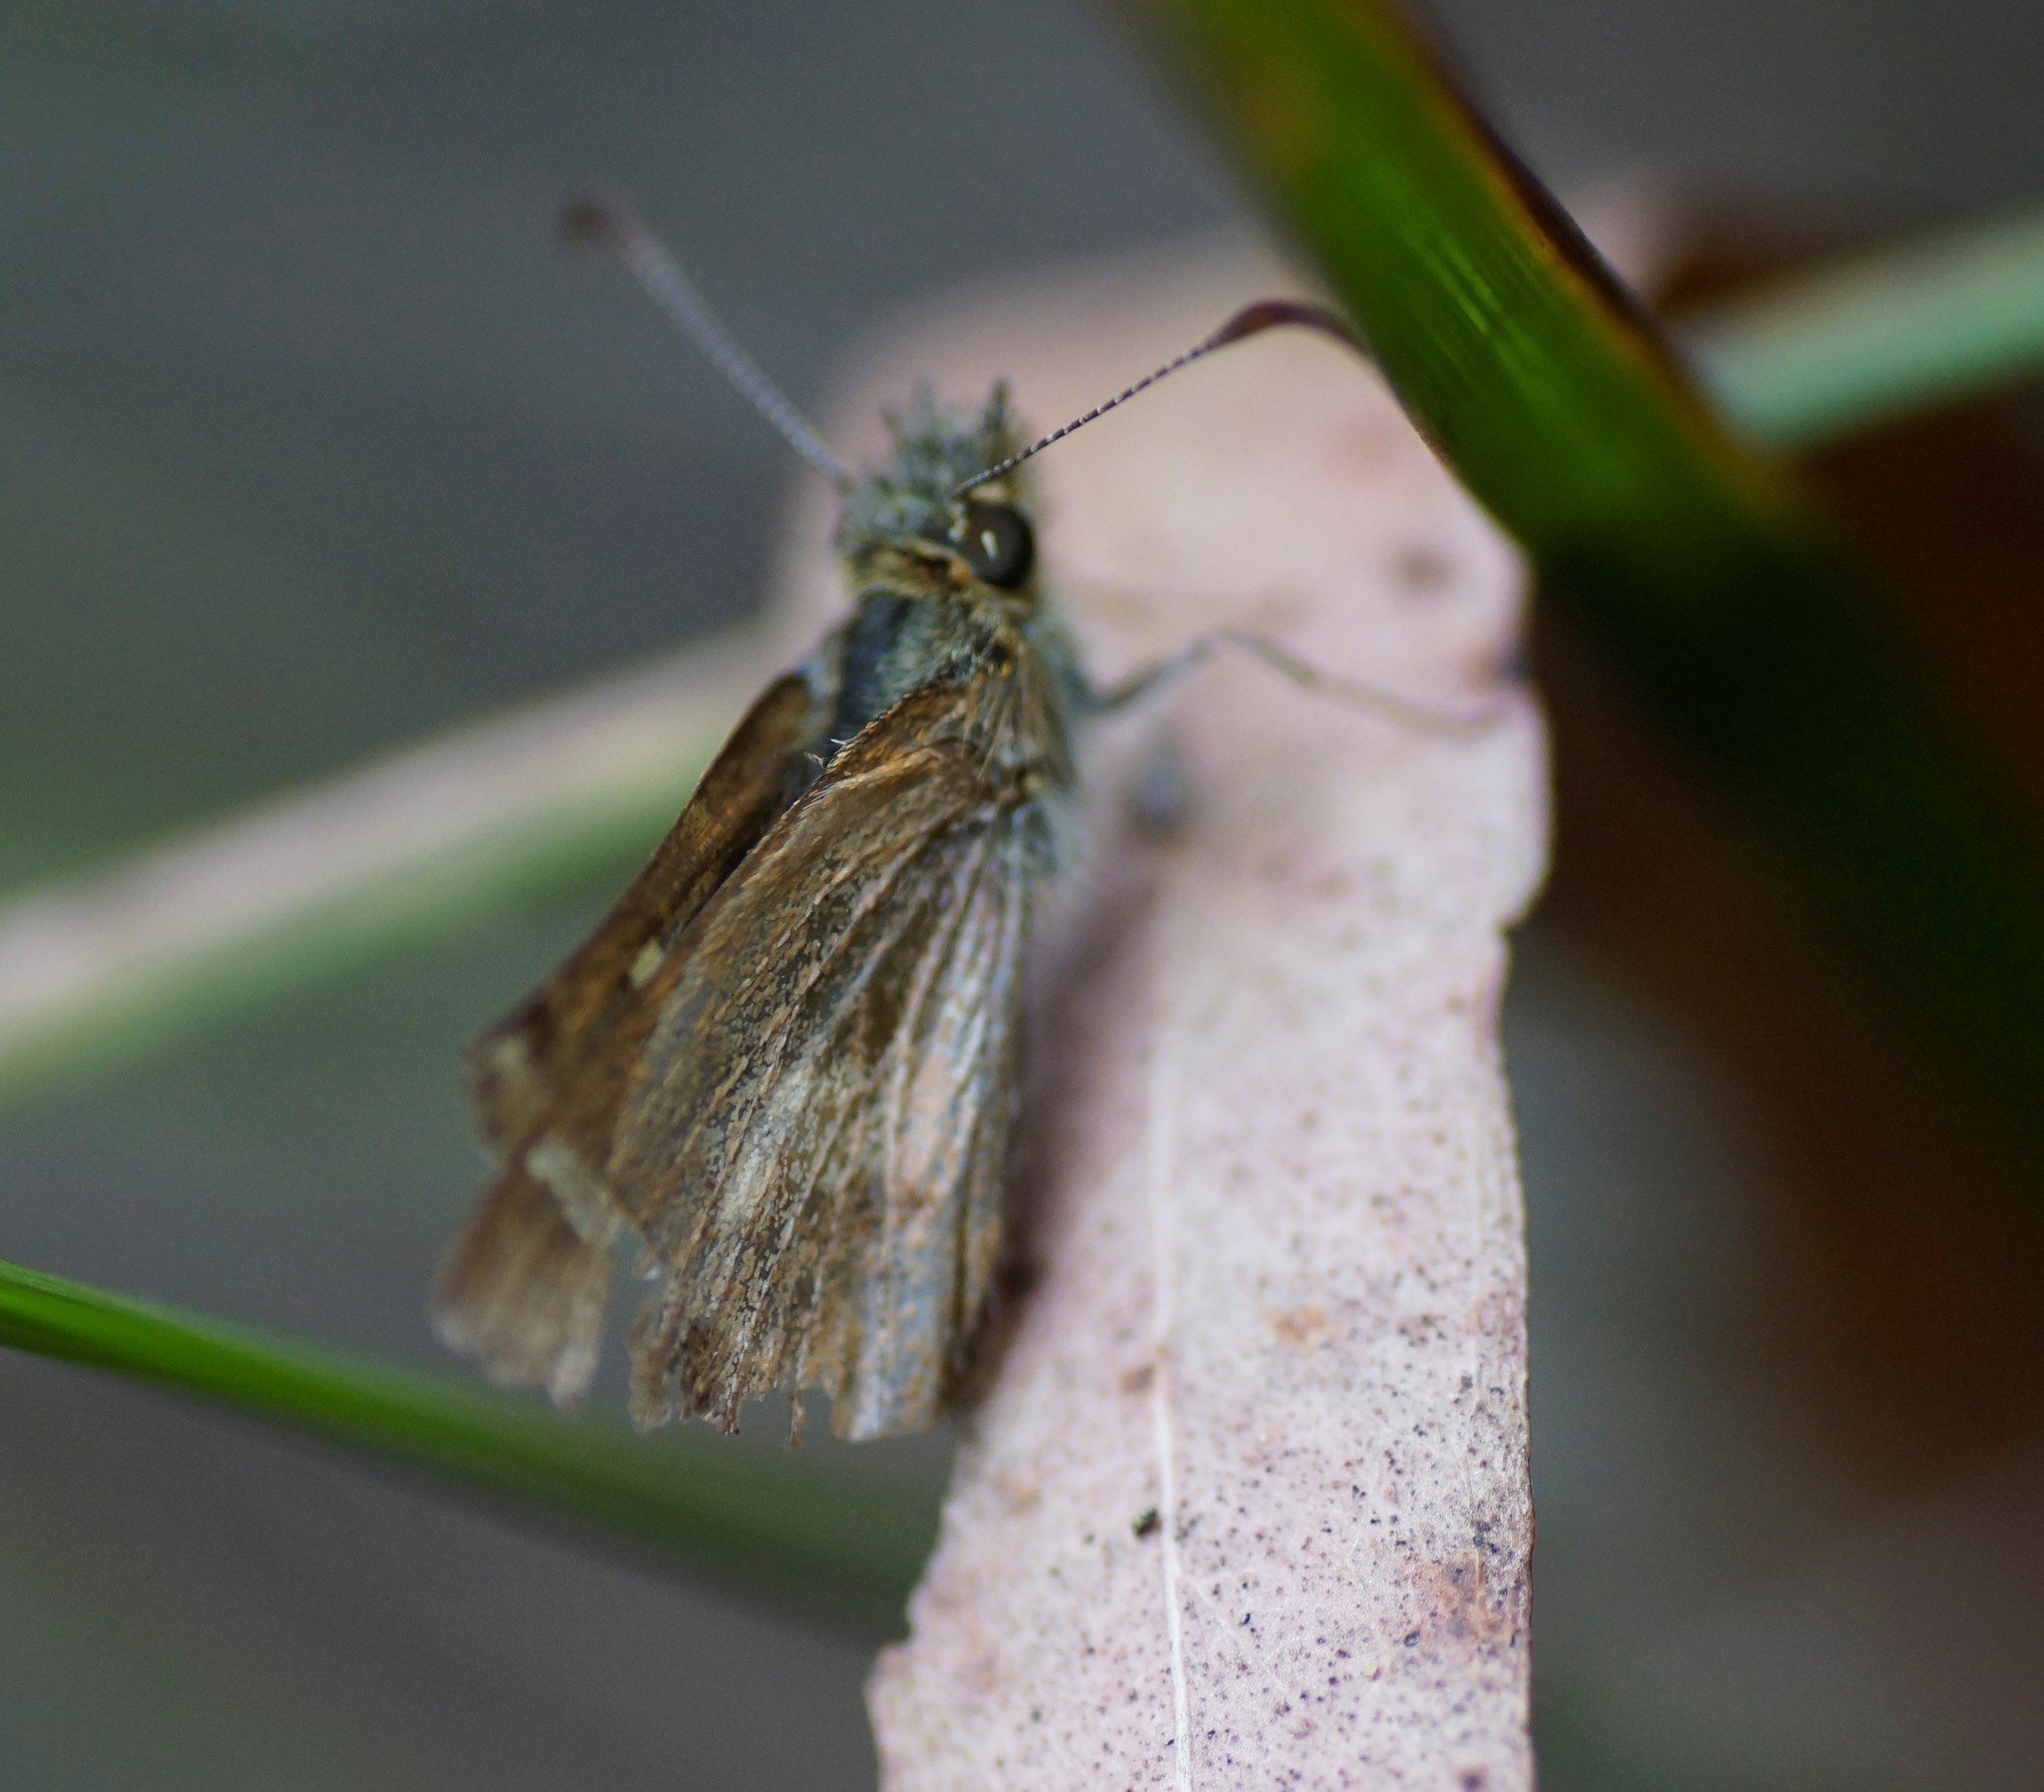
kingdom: Animalia
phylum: Arthropoda
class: Insecta
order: Lepidoptera
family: Hesperiidae
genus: Dispar
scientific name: Dispar compacta
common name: Barred skipper
